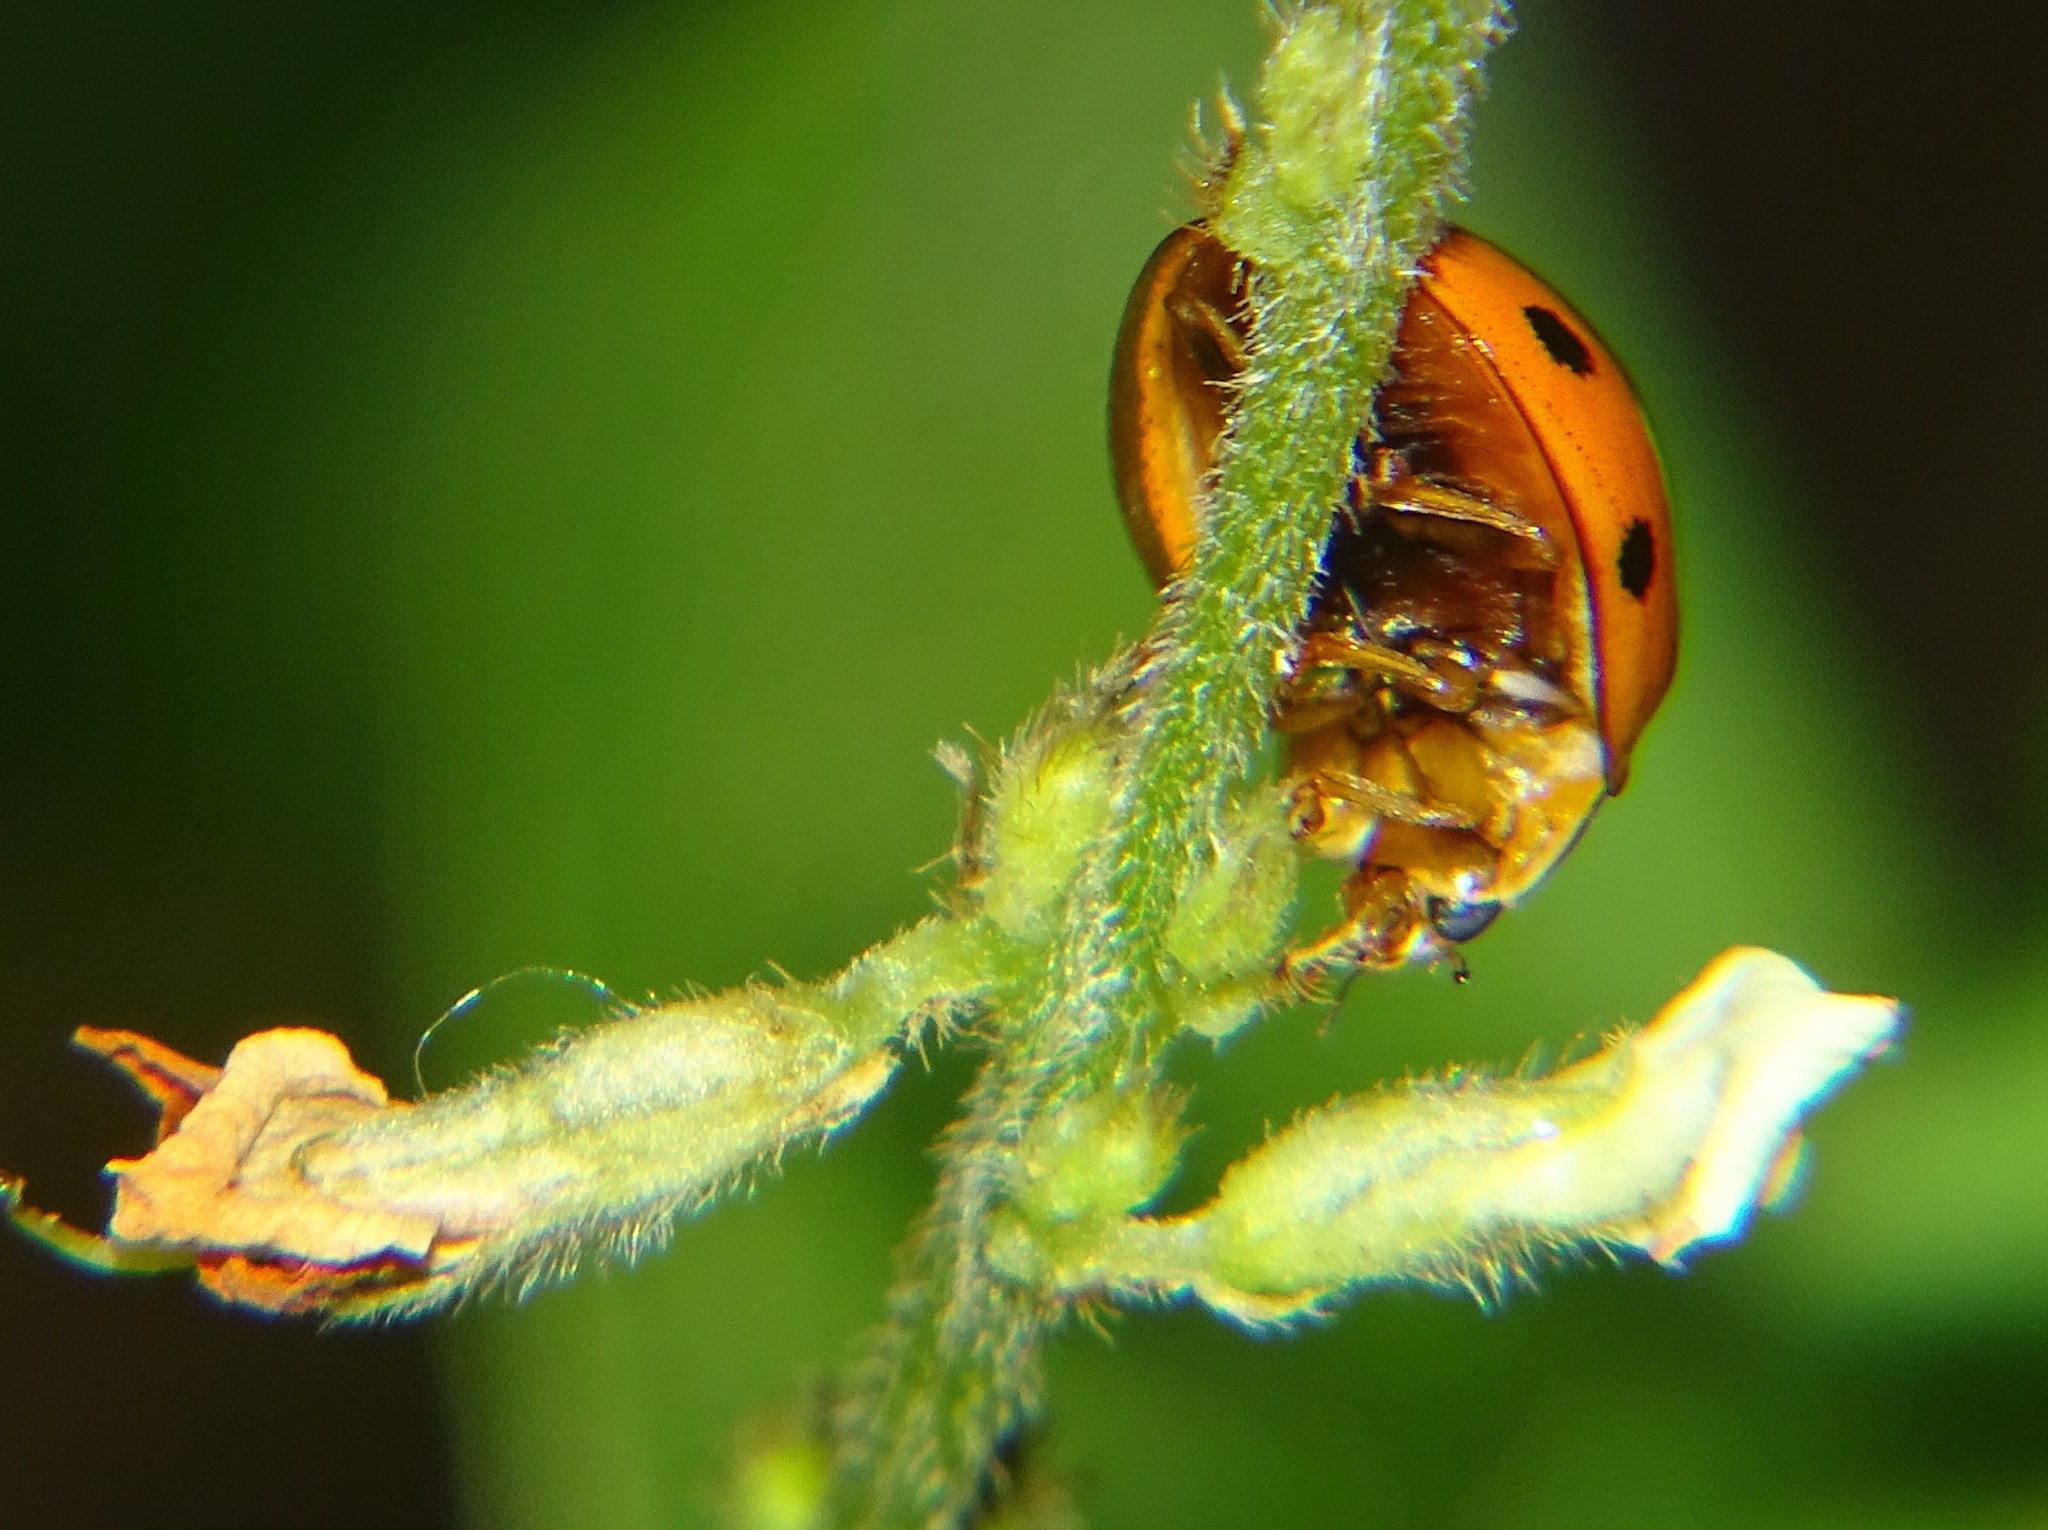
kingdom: Animalia
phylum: Arthropoda
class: Insecta
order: Coleoptera
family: Coccinellidae
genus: Coelophora
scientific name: Coelophora inaequalis
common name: Common australian lady beetle
